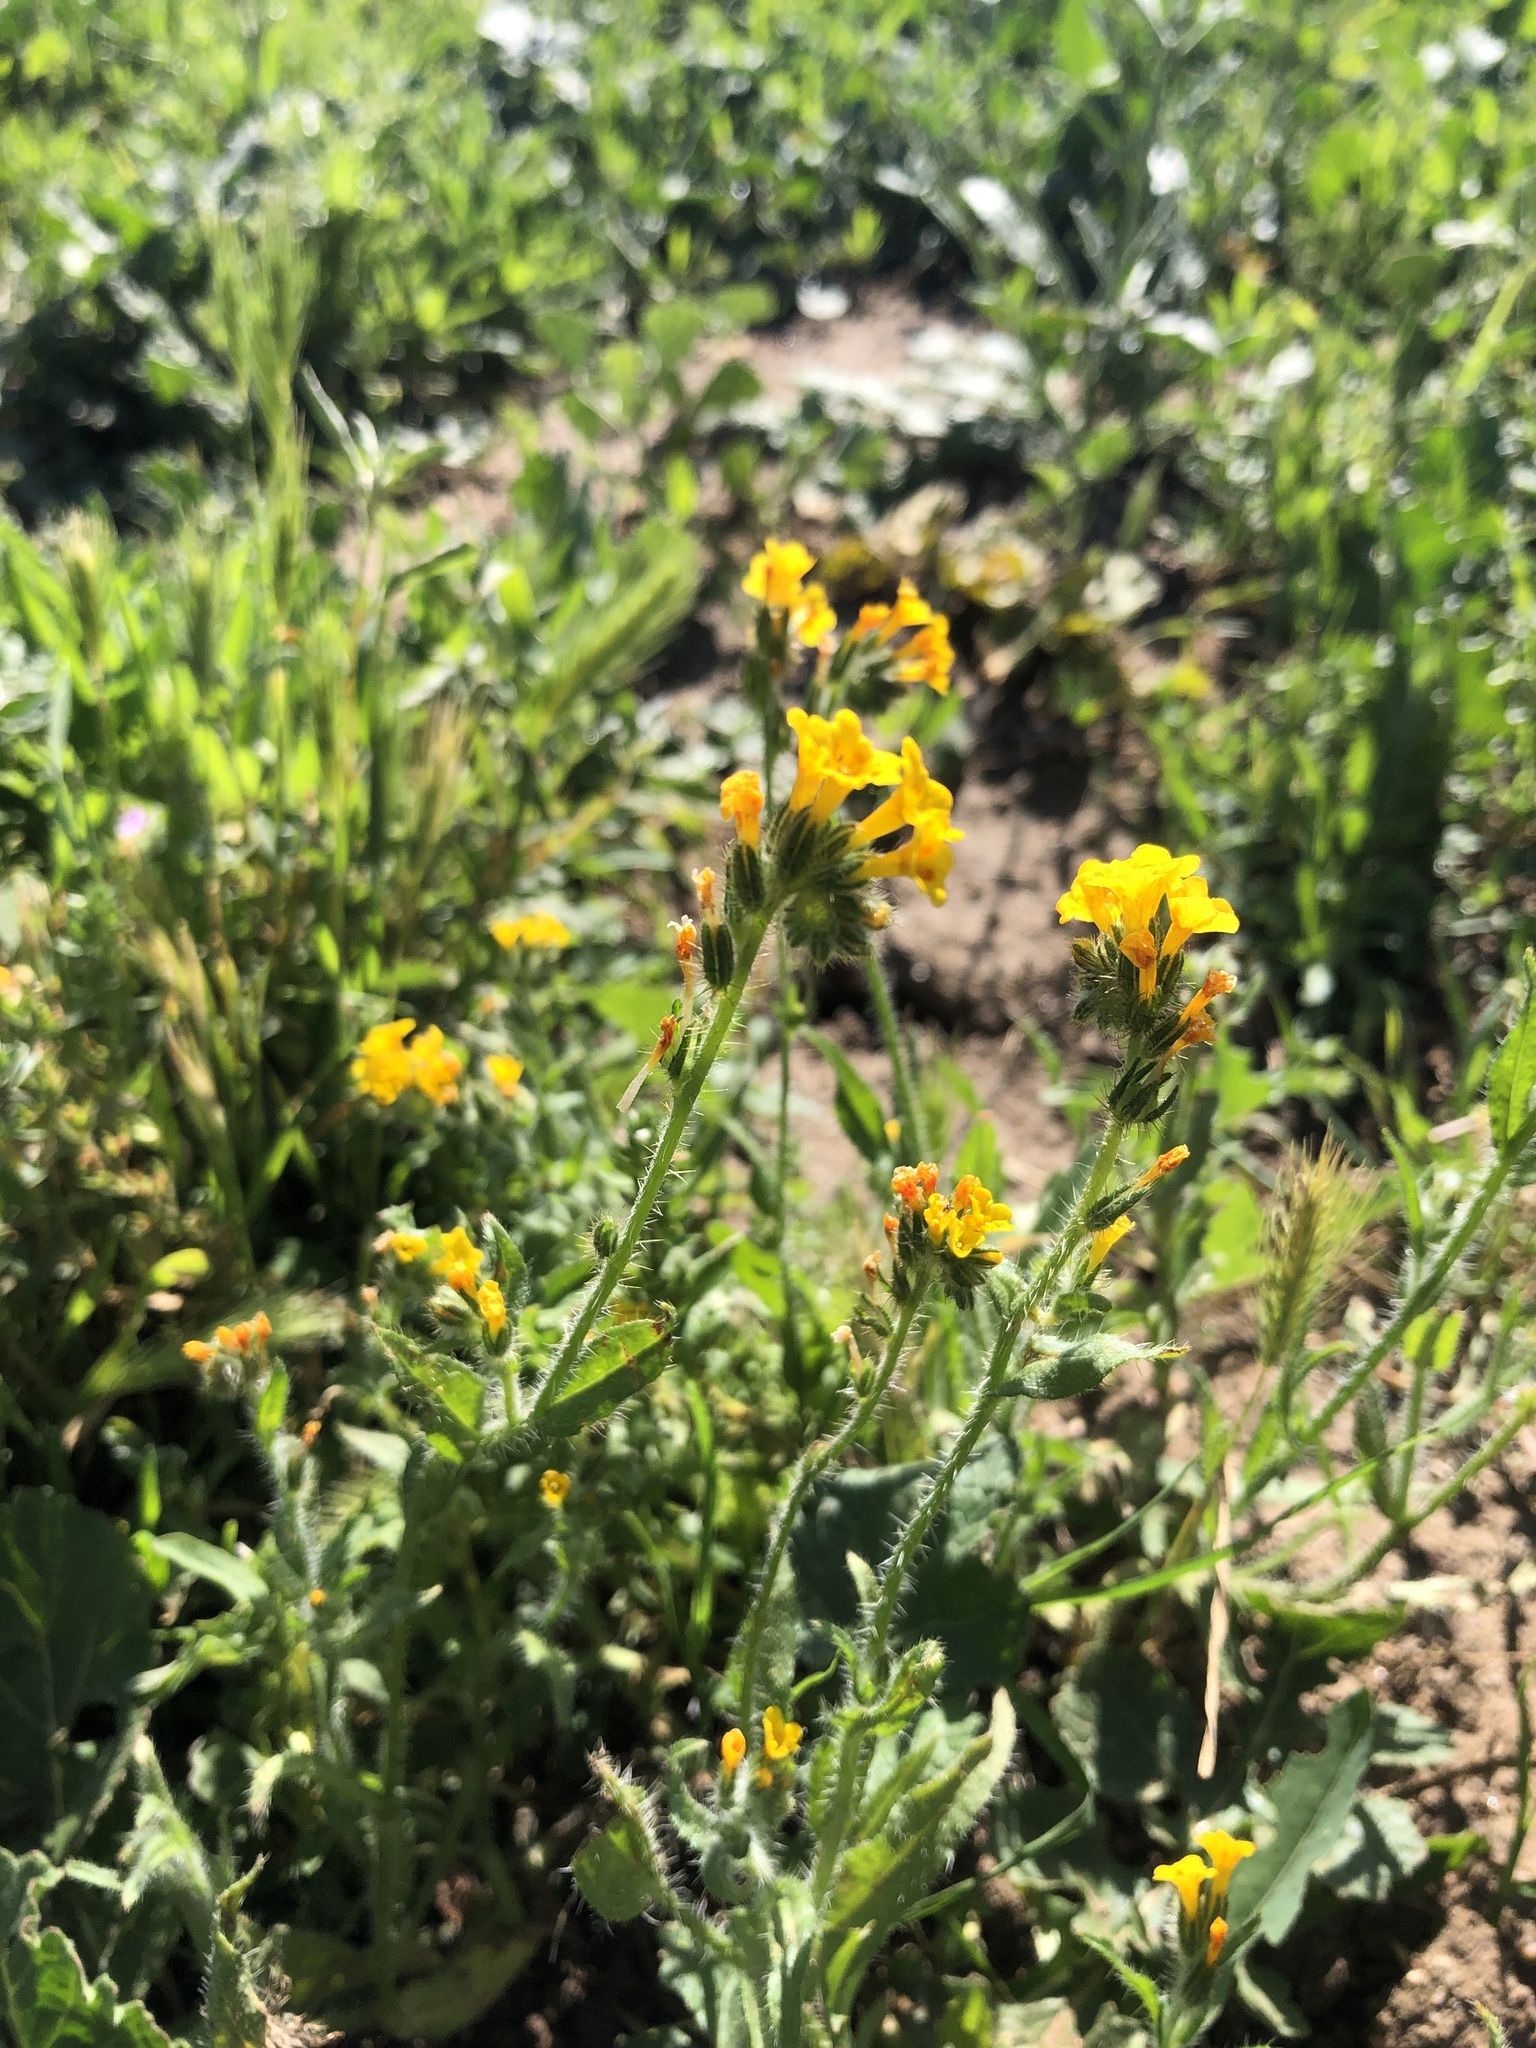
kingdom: Plantae
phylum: Tracheophyta
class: Magnoliopsida
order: Boraginales
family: Boraginaceae
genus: Amsinckia
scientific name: Amsinckia menziesii
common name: Menzies' fiddleneck
